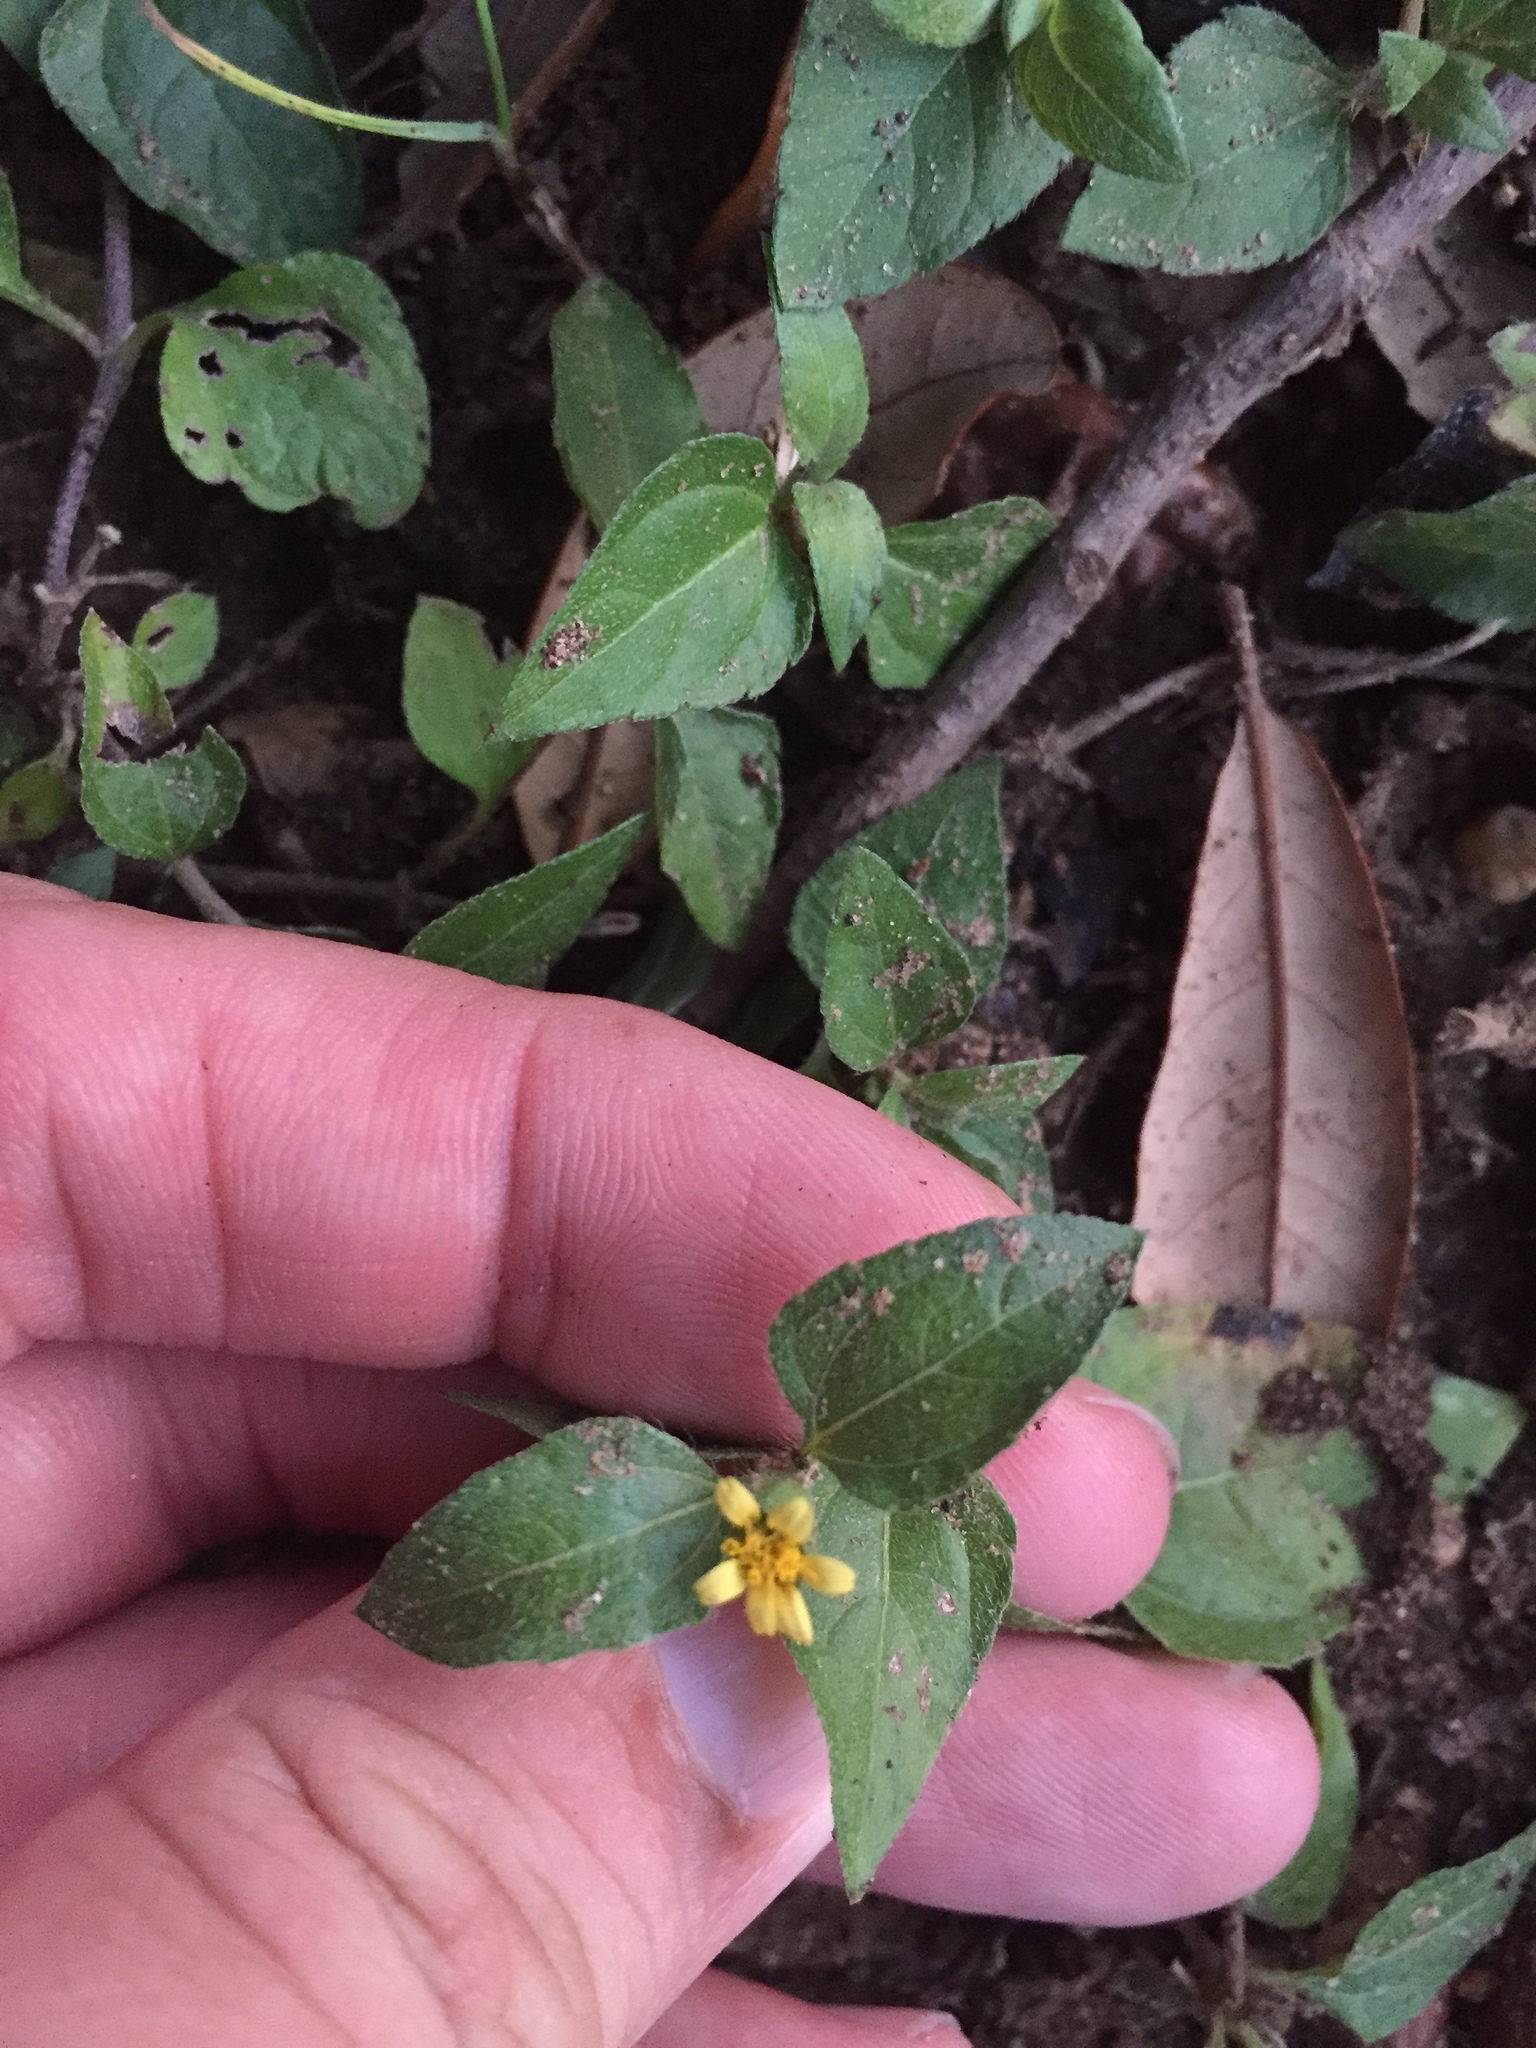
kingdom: Plantae
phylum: Tracheophyta
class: Magnoliopsida
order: Asterales
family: Asteraceae
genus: Calyptocarpus
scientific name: Calyptocarpus vialis
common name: Straggler daisy
